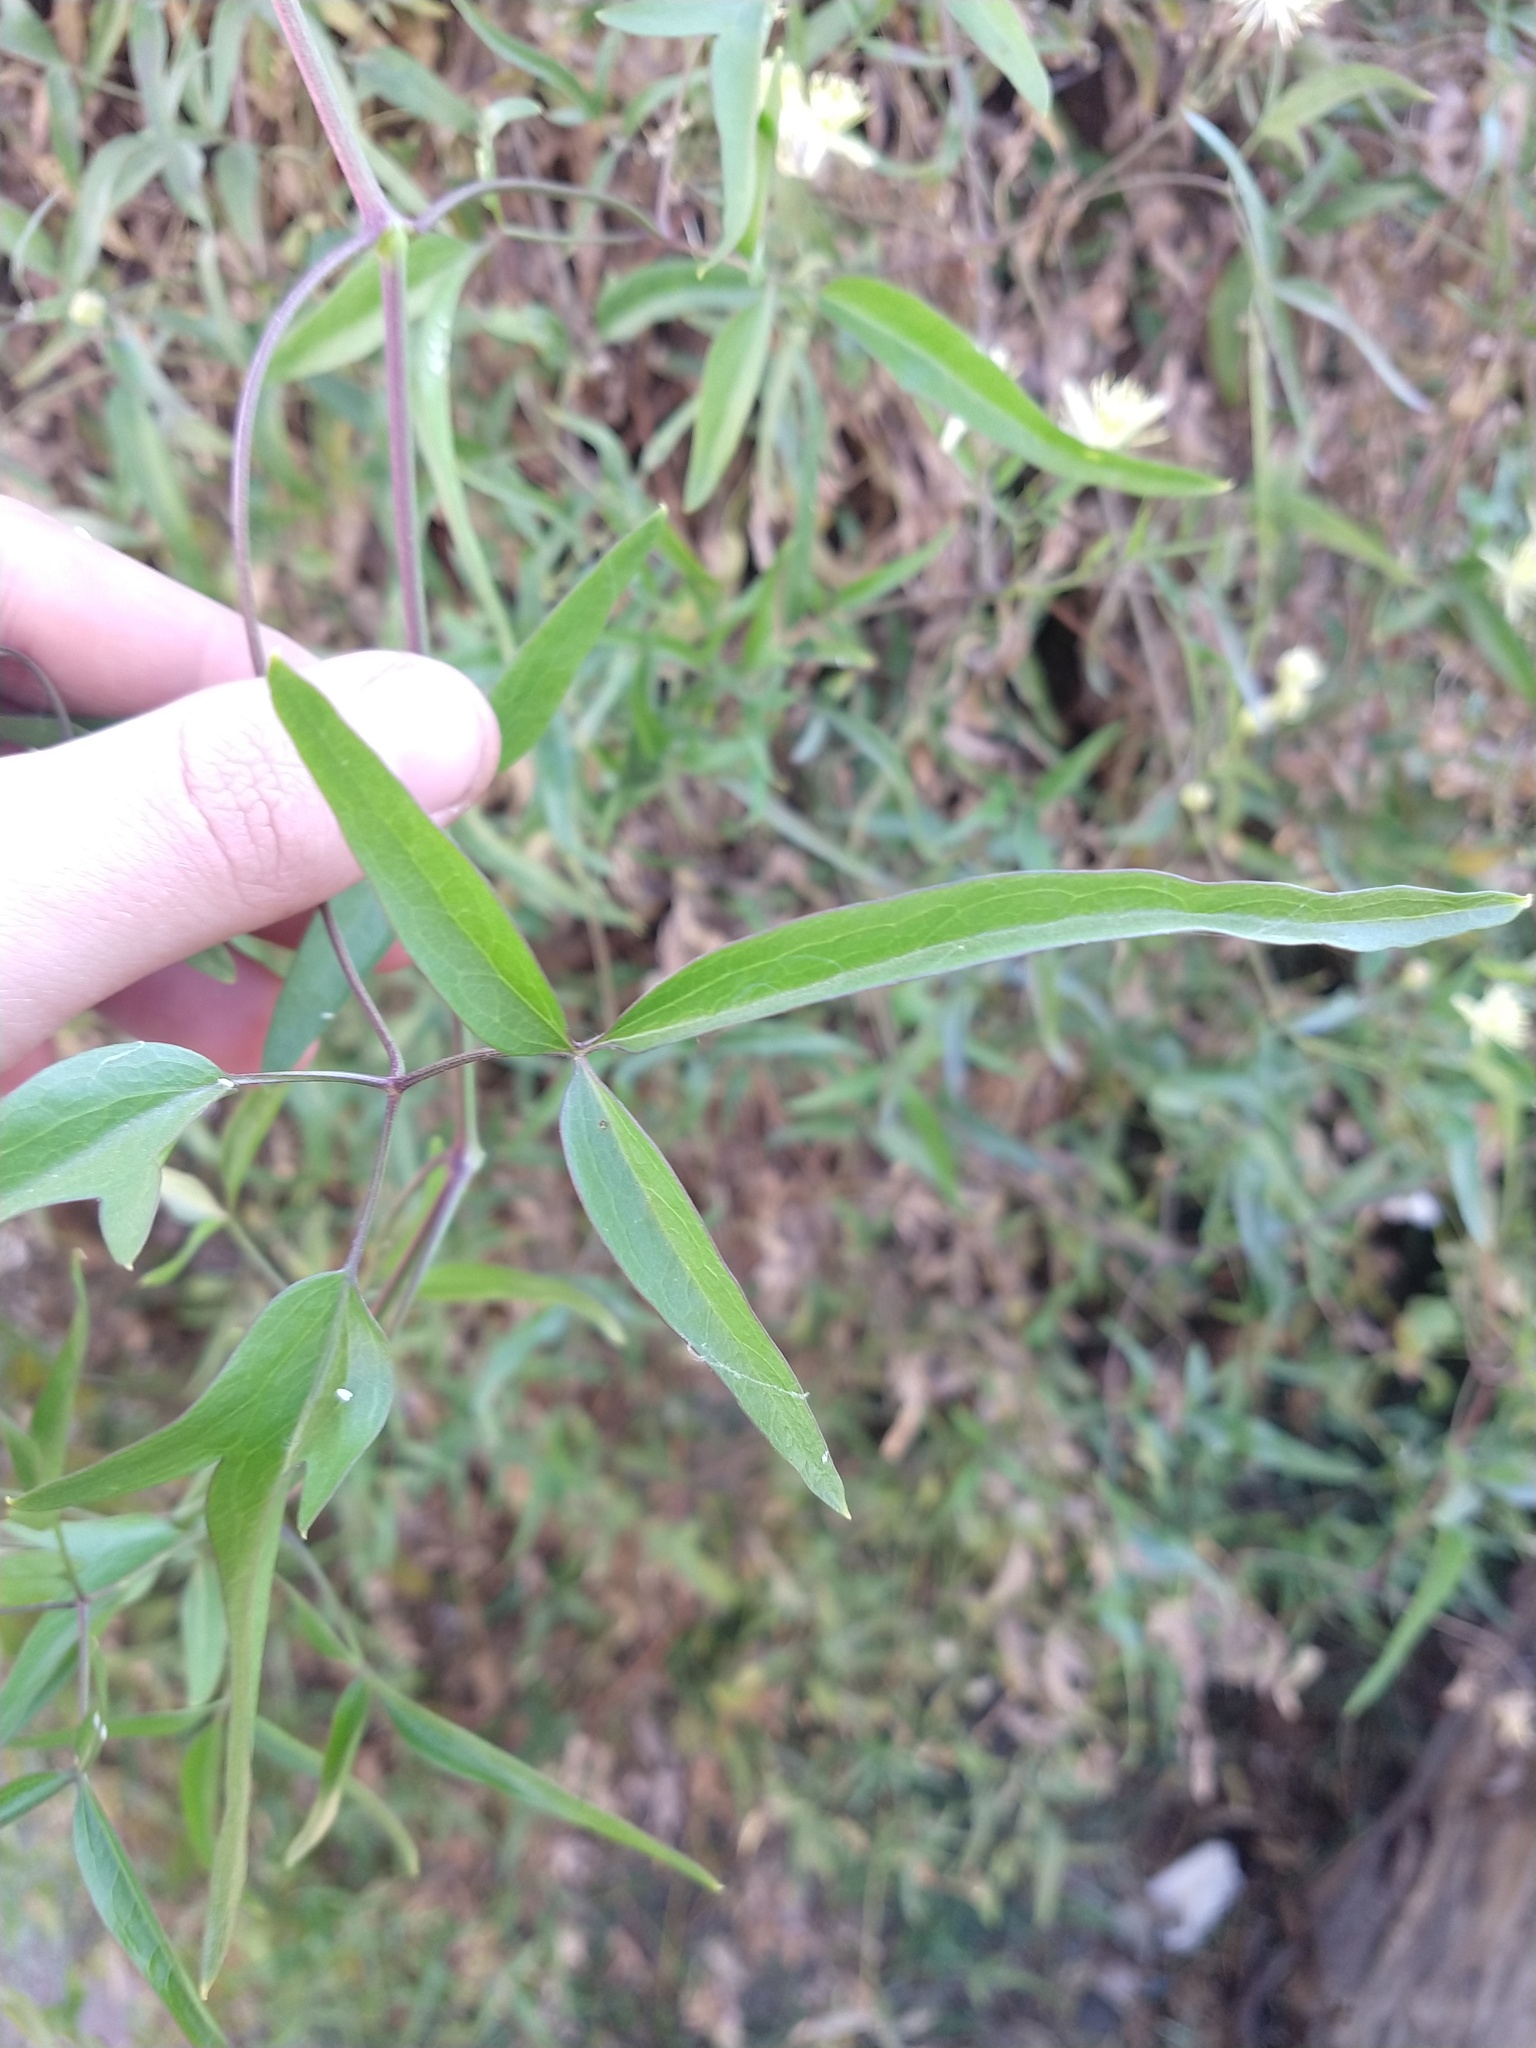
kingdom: Plantae
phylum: Tracheophyta
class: Magnoliopsida
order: Ranunculales
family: Ranunculaceae
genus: Clematis
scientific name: Clematis montevidensis
